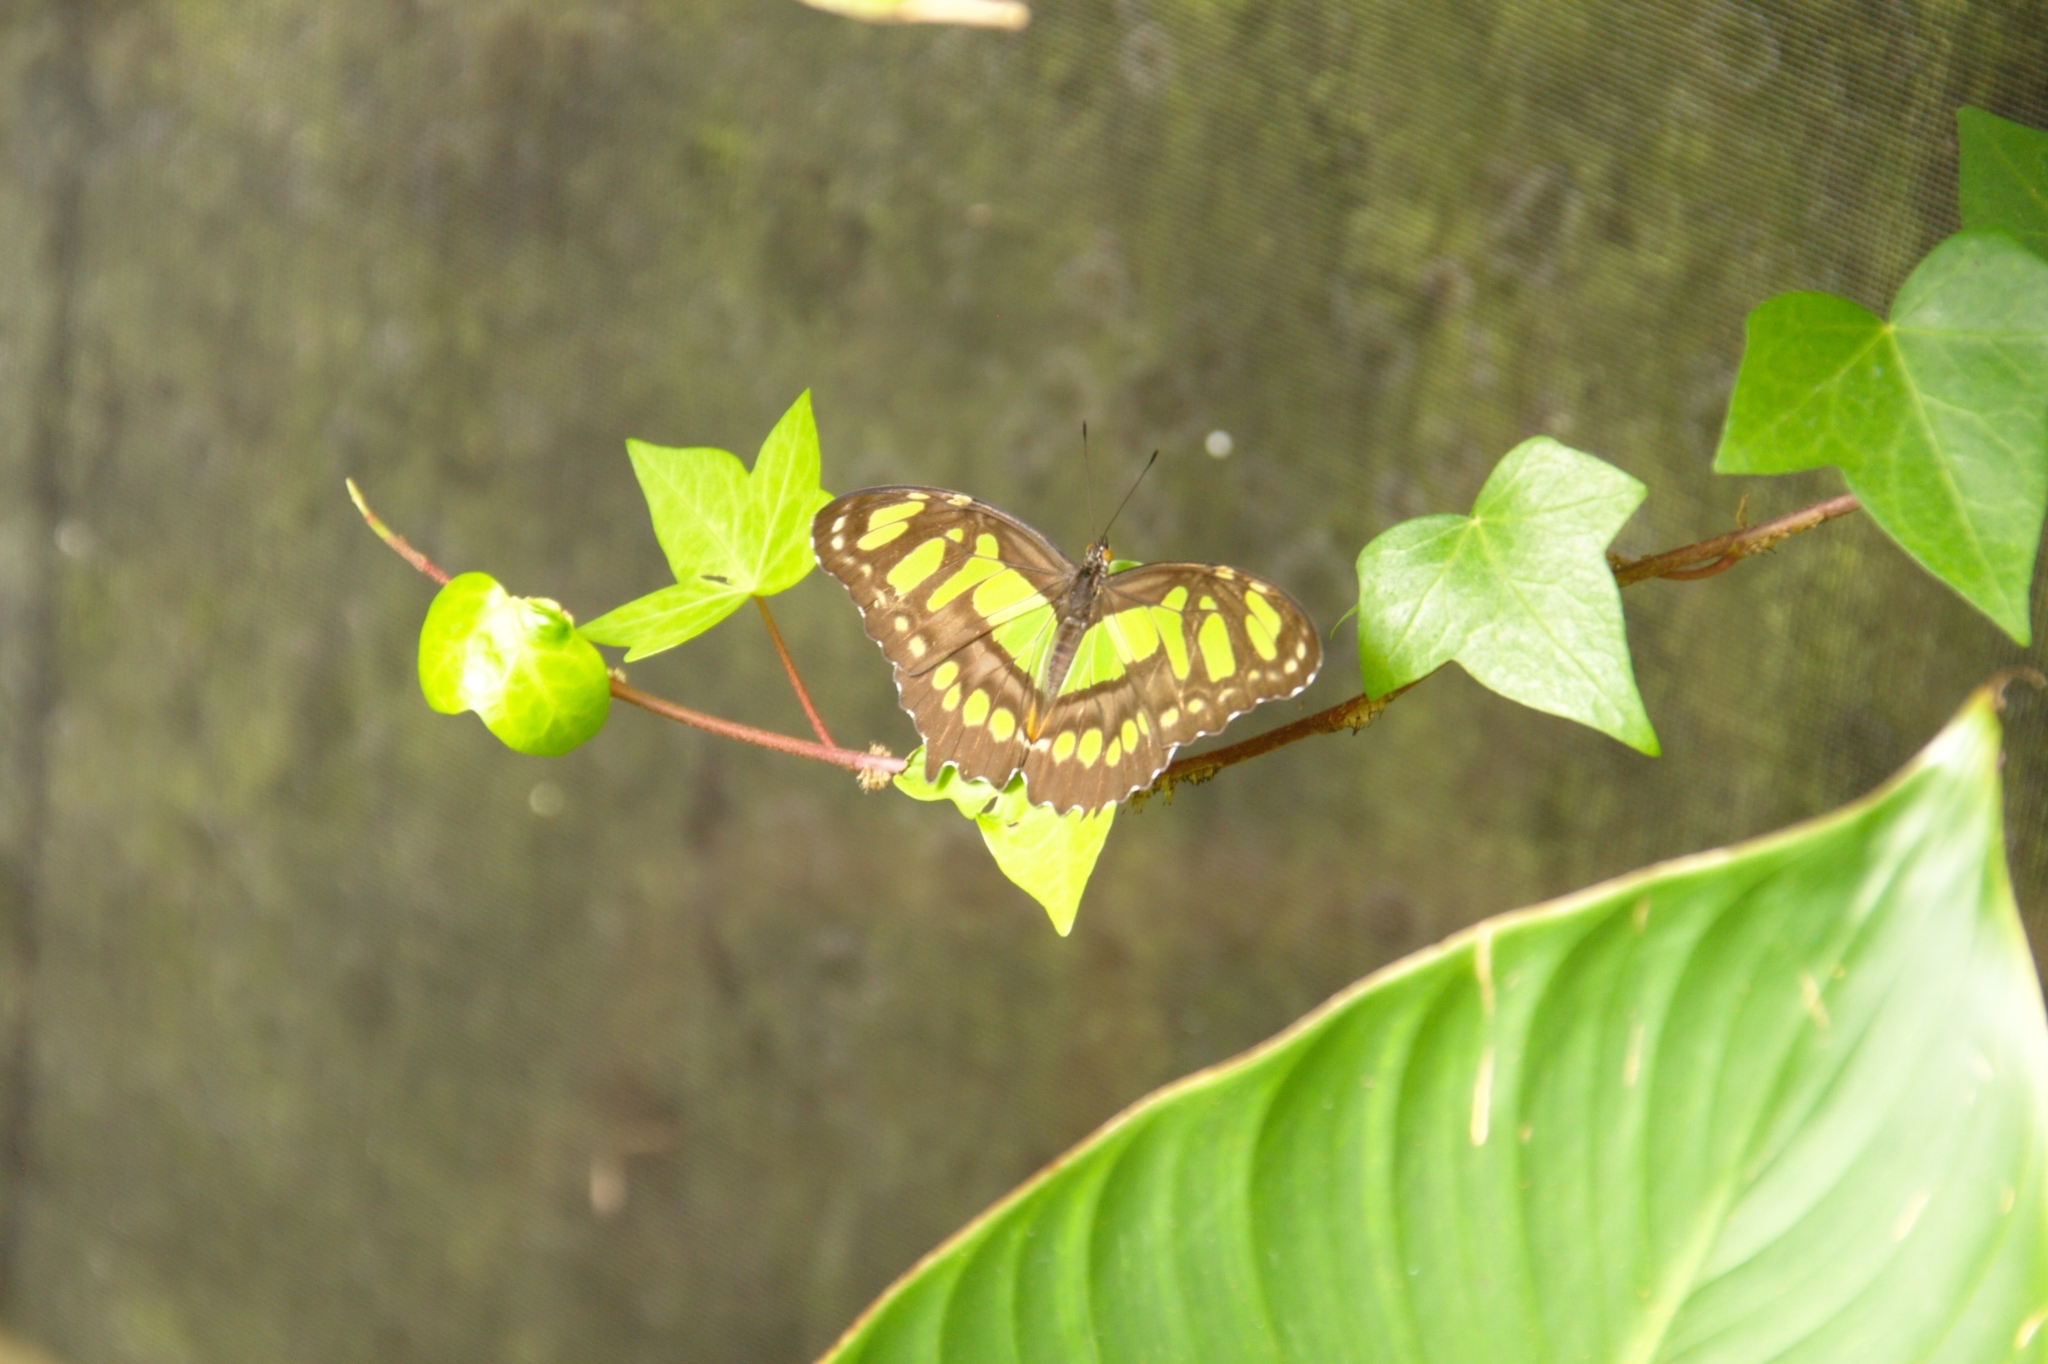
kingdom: Animalia
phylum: Arthropoda
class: Insecta
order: Lepidoptera
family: Nymphalidae
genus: Siproeta
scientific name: Siproeta stelenes
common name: Malachite
